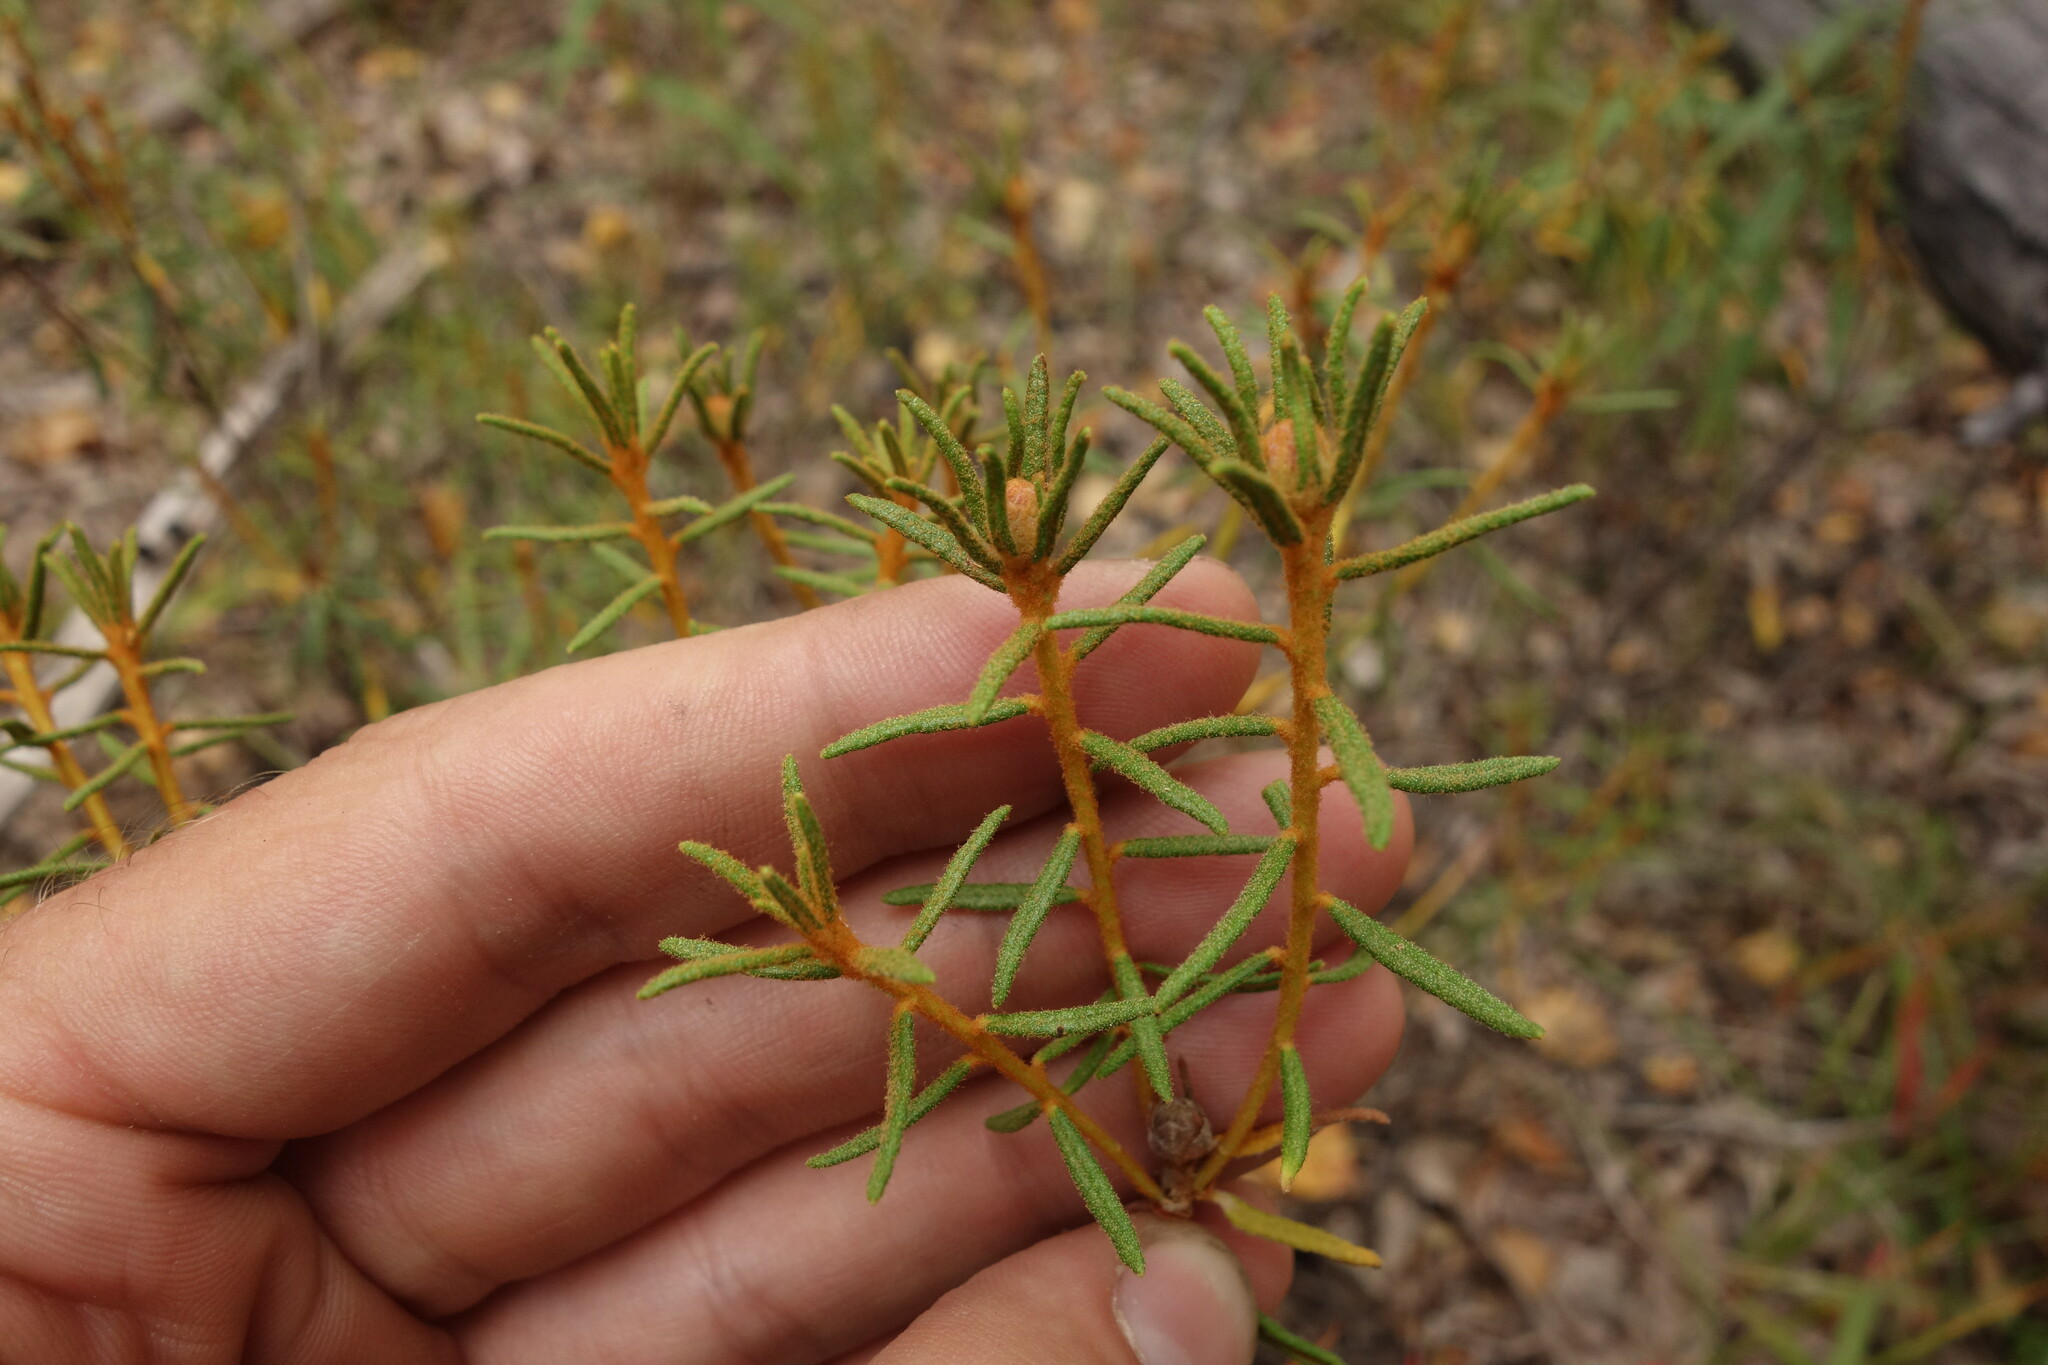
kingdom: Plantae
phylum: Tracheophyta
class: Magnoliopsida
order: Ericales
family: Ericaceae
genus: Rhododendron
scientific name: Rhododendron tomentosum
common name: Marsh labrador tea
